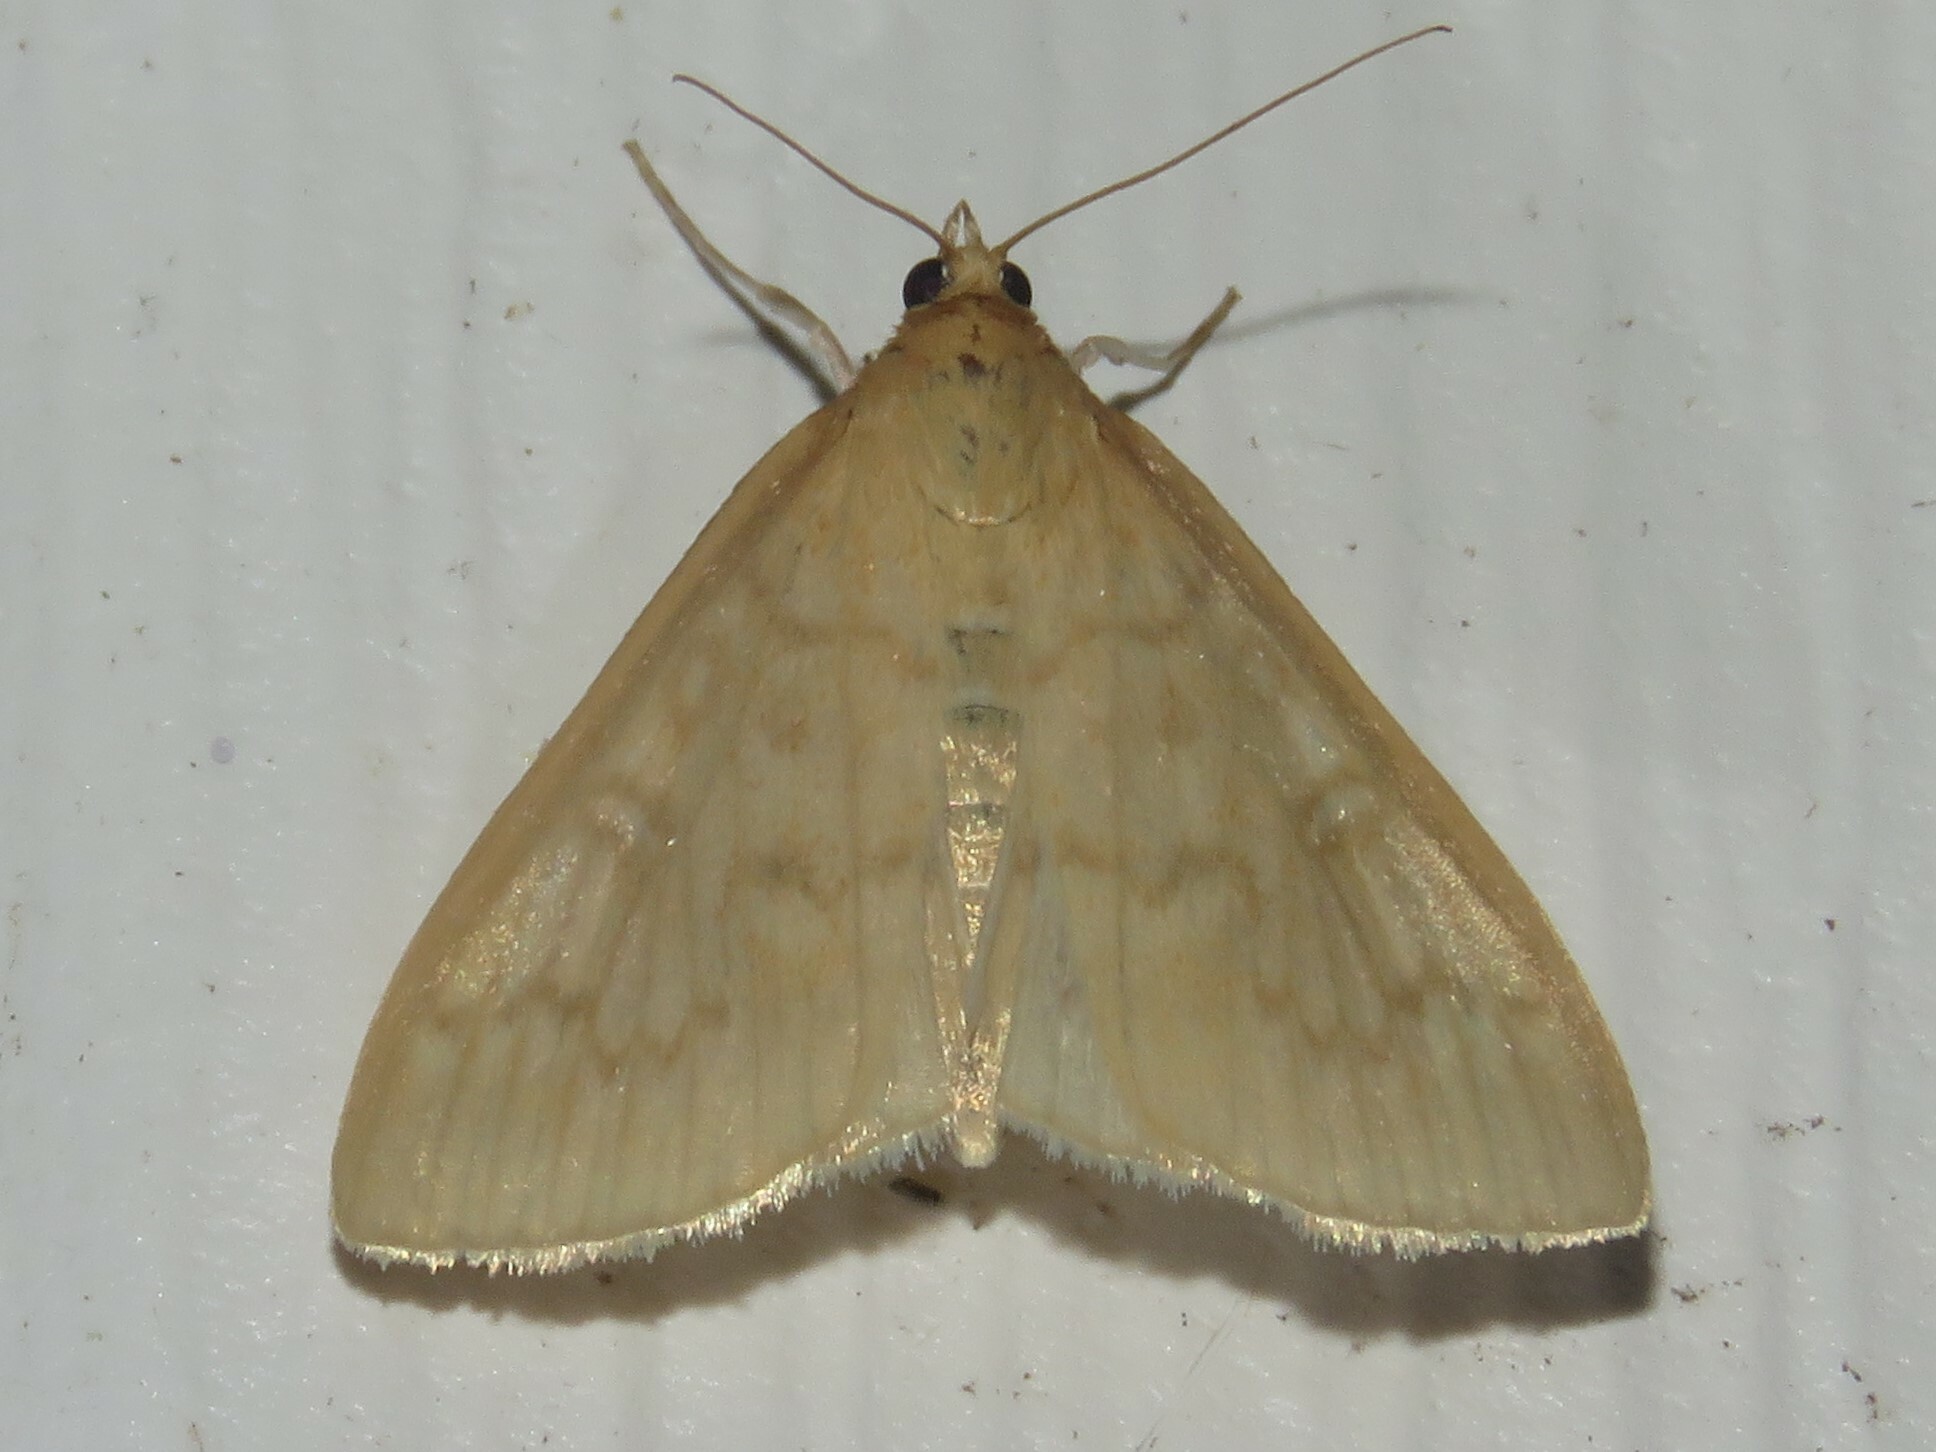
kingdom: Animalia
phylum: Arthropoda
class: Insecta
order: Lepidoptera
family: Crambidae
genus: Anania
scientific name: Anania Framinghamia helvalis
